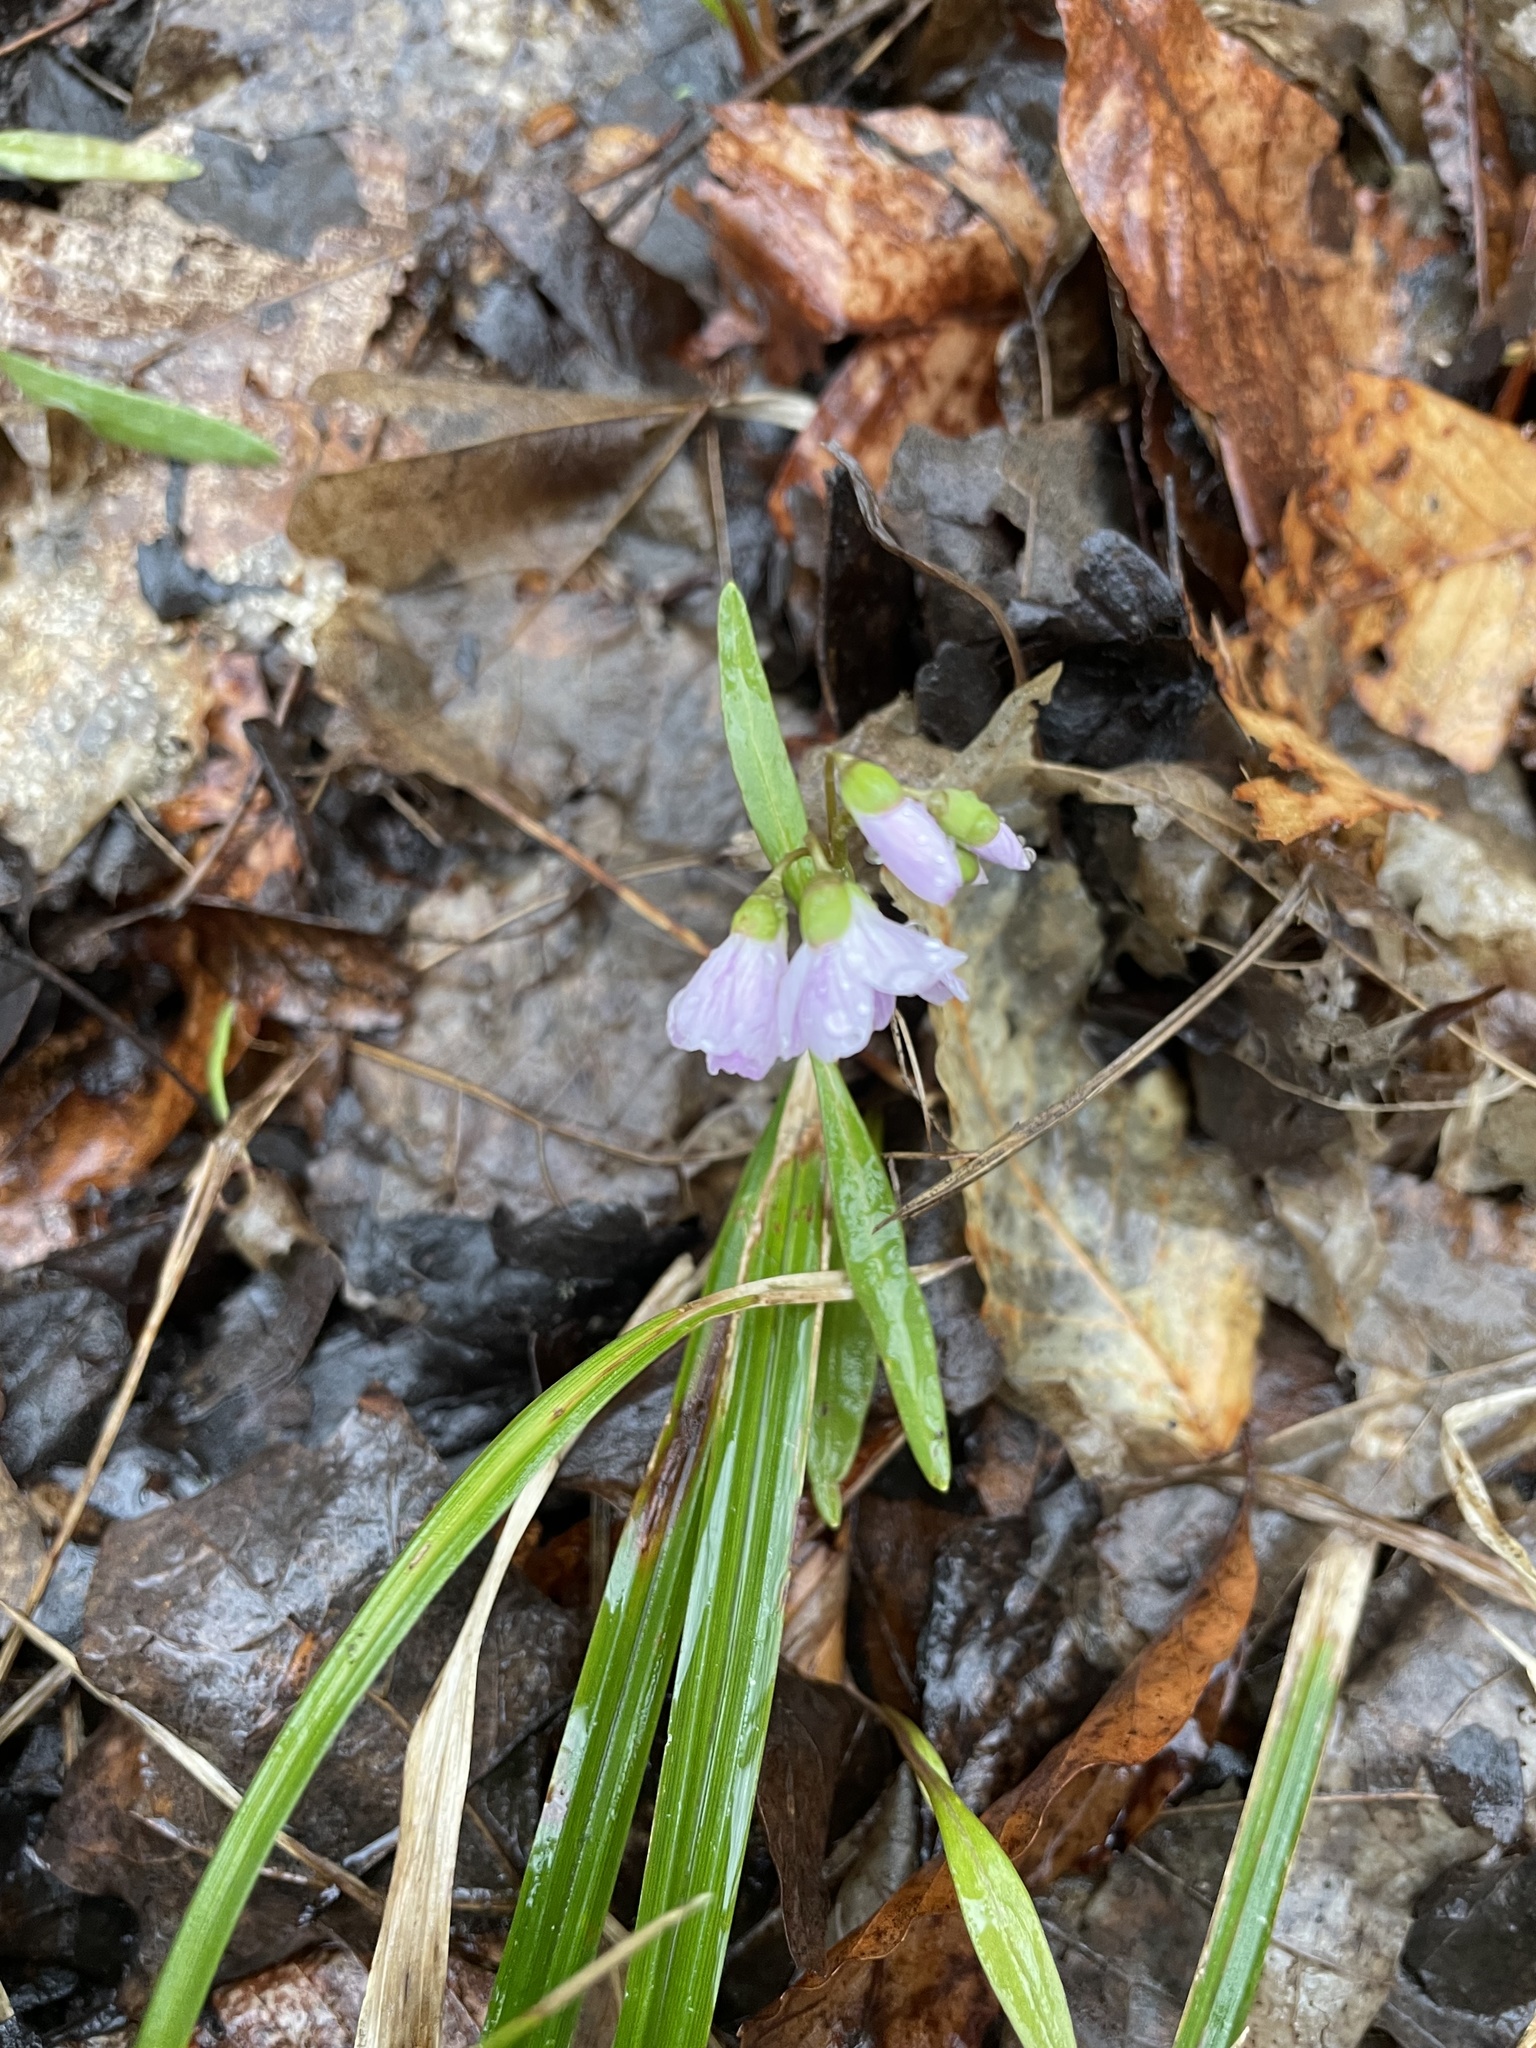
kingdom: Plantae
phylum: Tracheophyta
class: Magnoliopsida
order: Caryophyllales
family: Montiaceae
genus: Claytonia
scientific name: Claytonia virginica
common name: Virginia springbeauty
